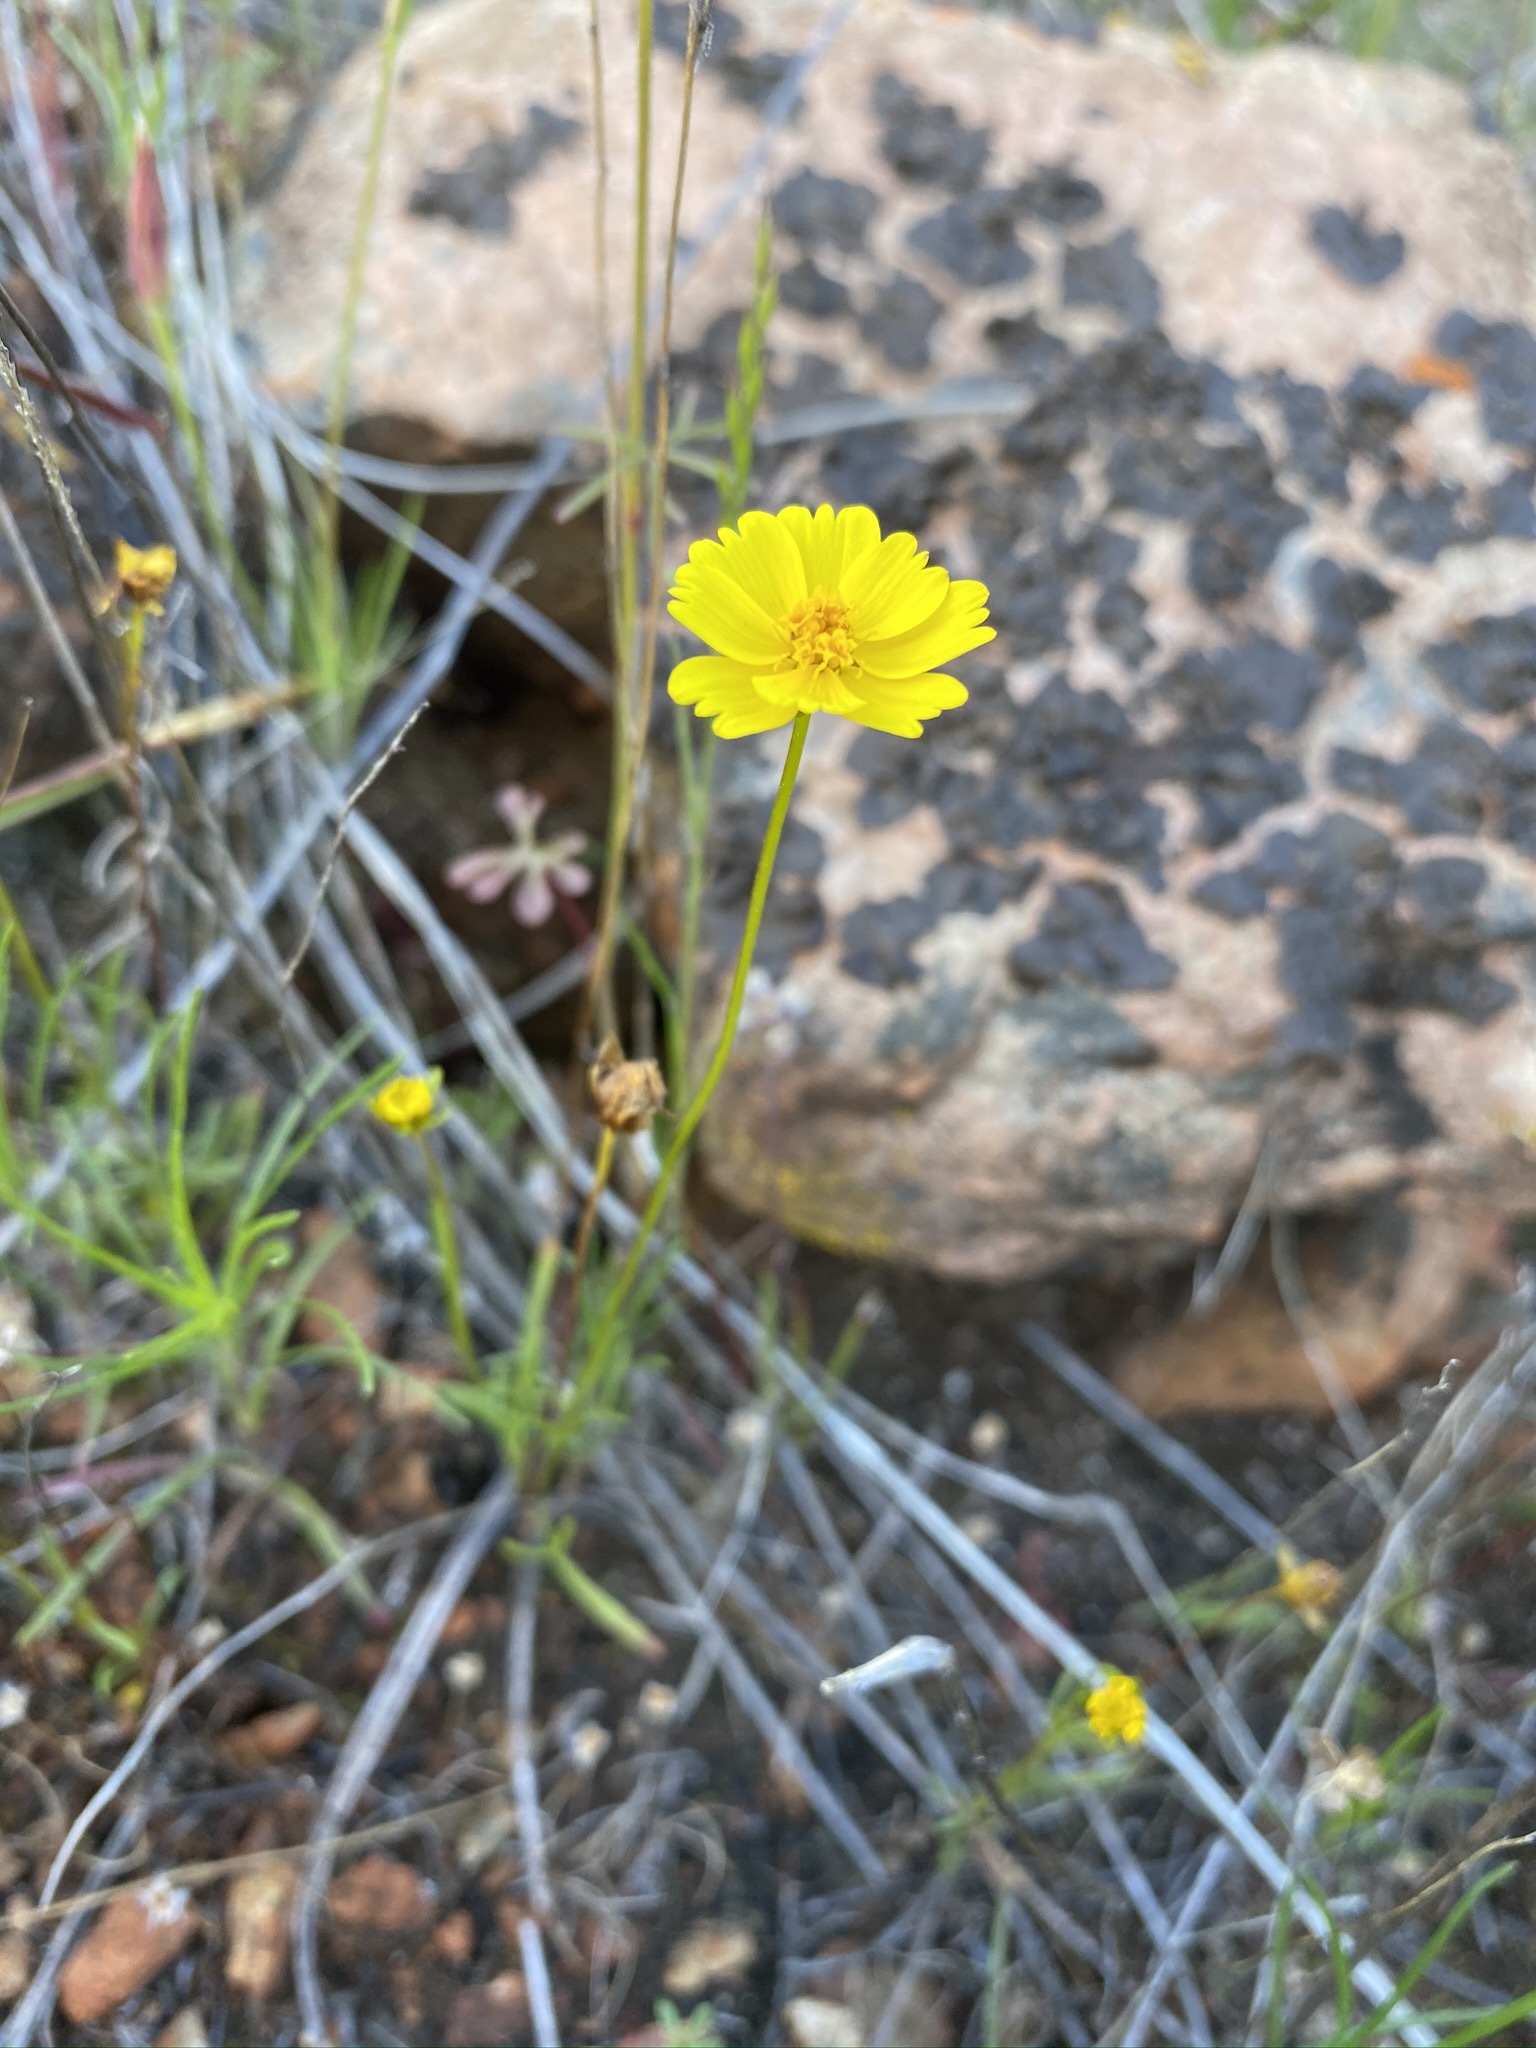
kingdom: Plantae
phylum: Tracheophyta
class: Magnoliopsida
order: Asterales
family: Asteraceae
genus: Coreopsis
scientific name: Coreopsis stillmanii
